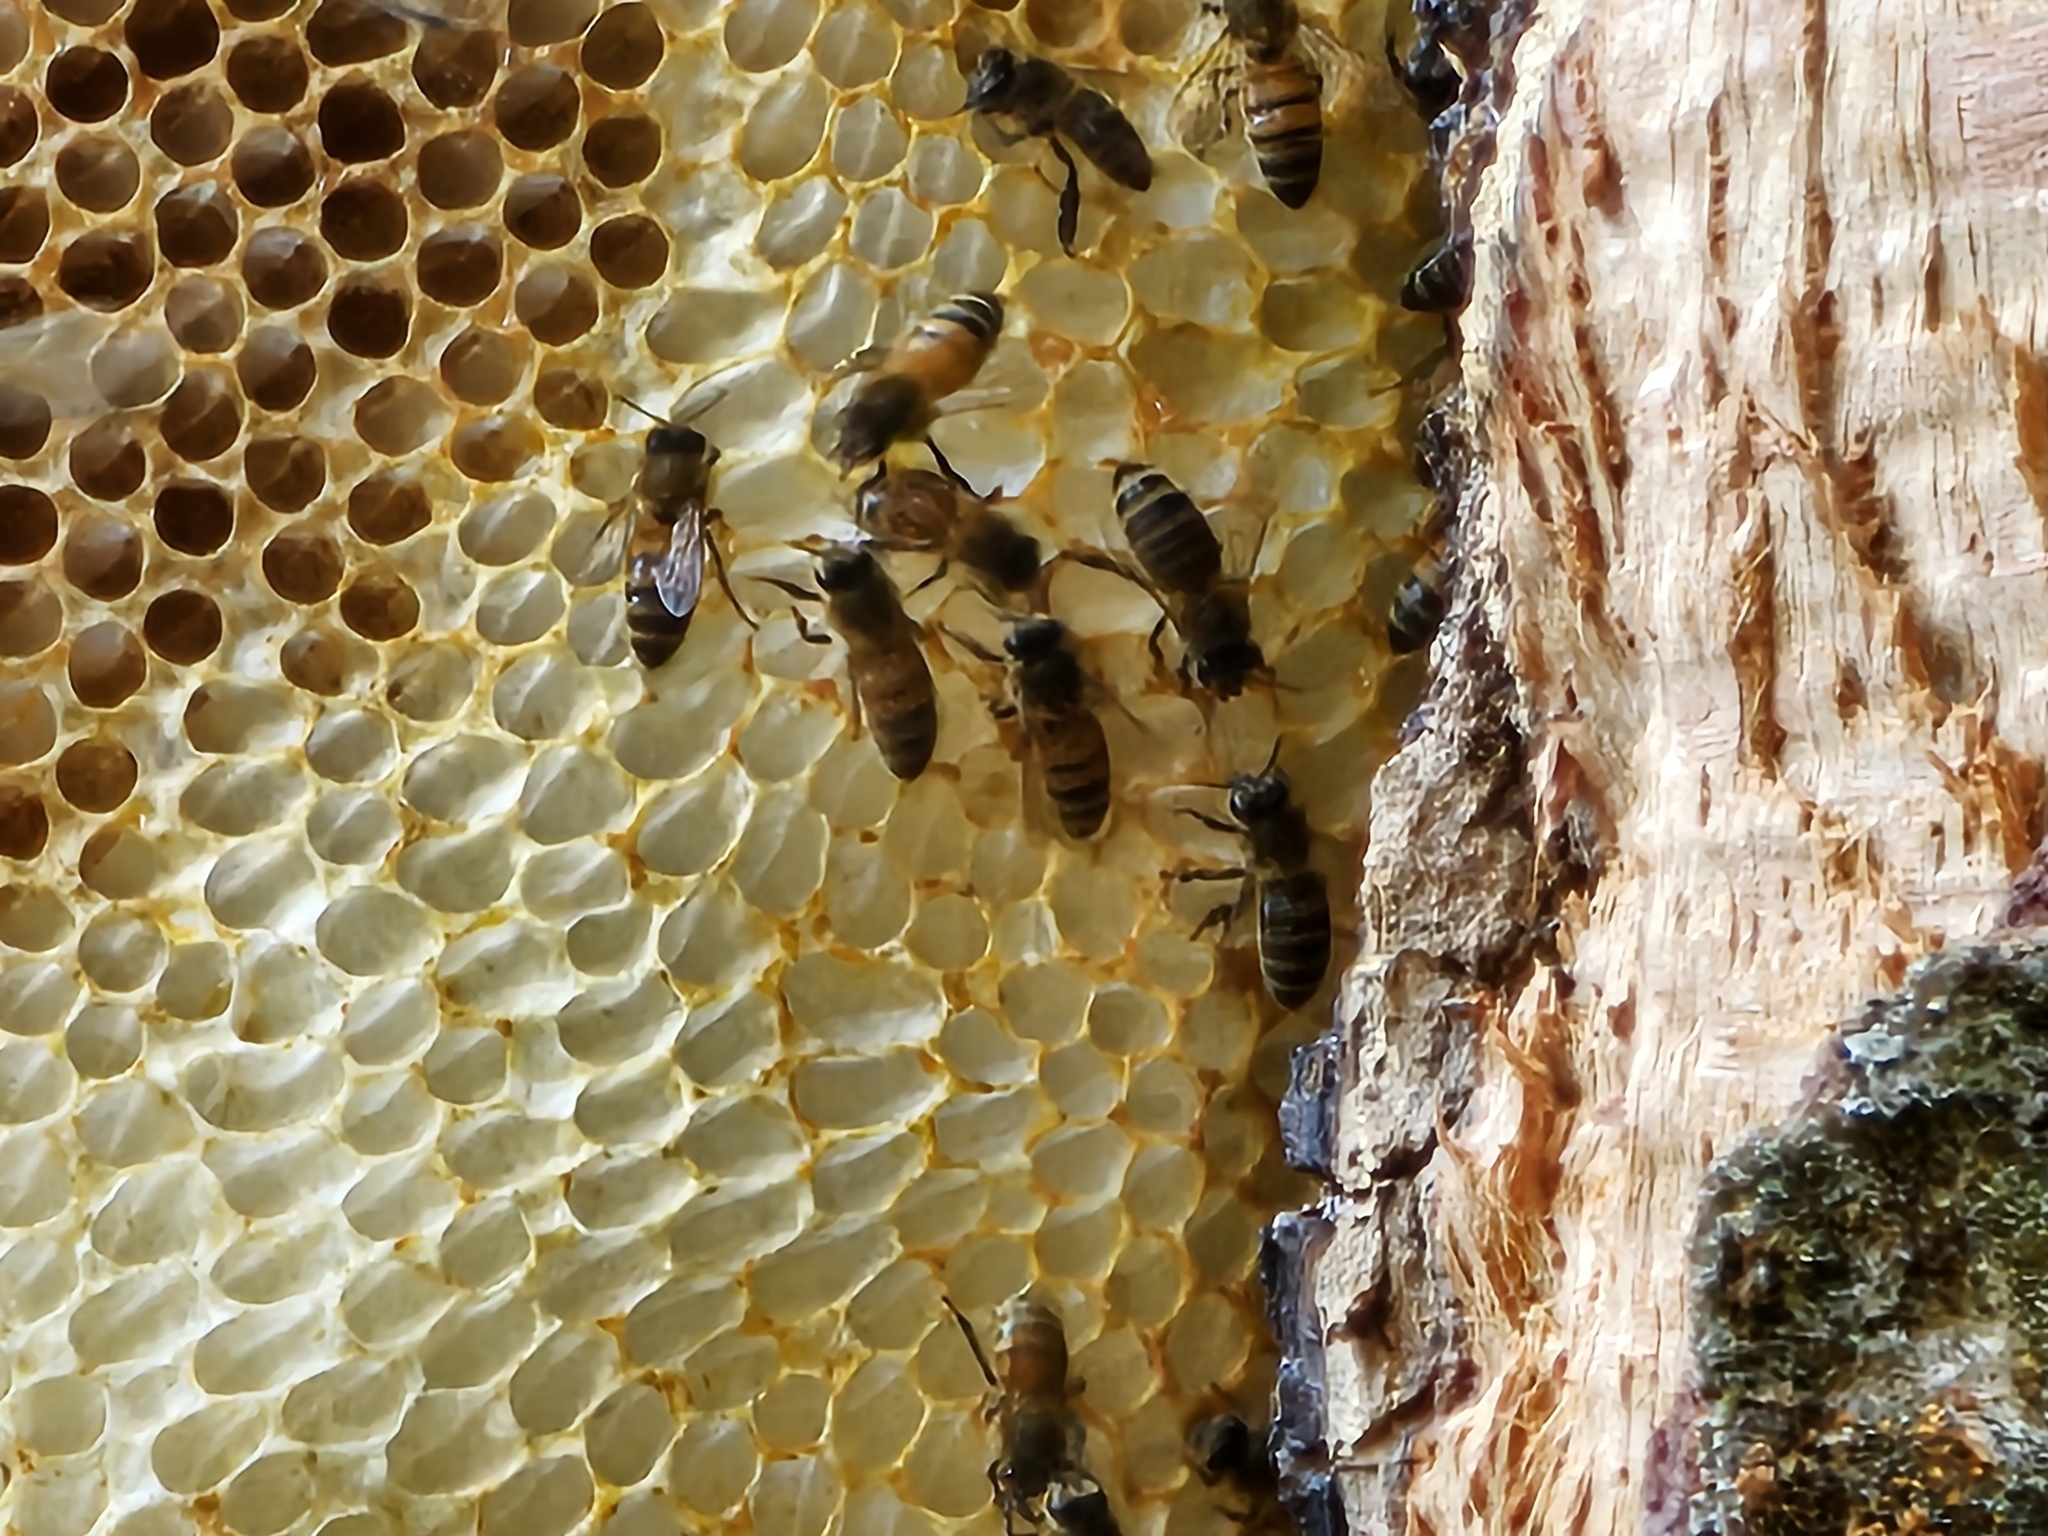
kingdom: Animalia
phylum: Arthropoda
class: Insecta
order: Hymenoptera
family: Apidae
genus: Apis
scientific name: Apis mellifera
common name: Honey bee
